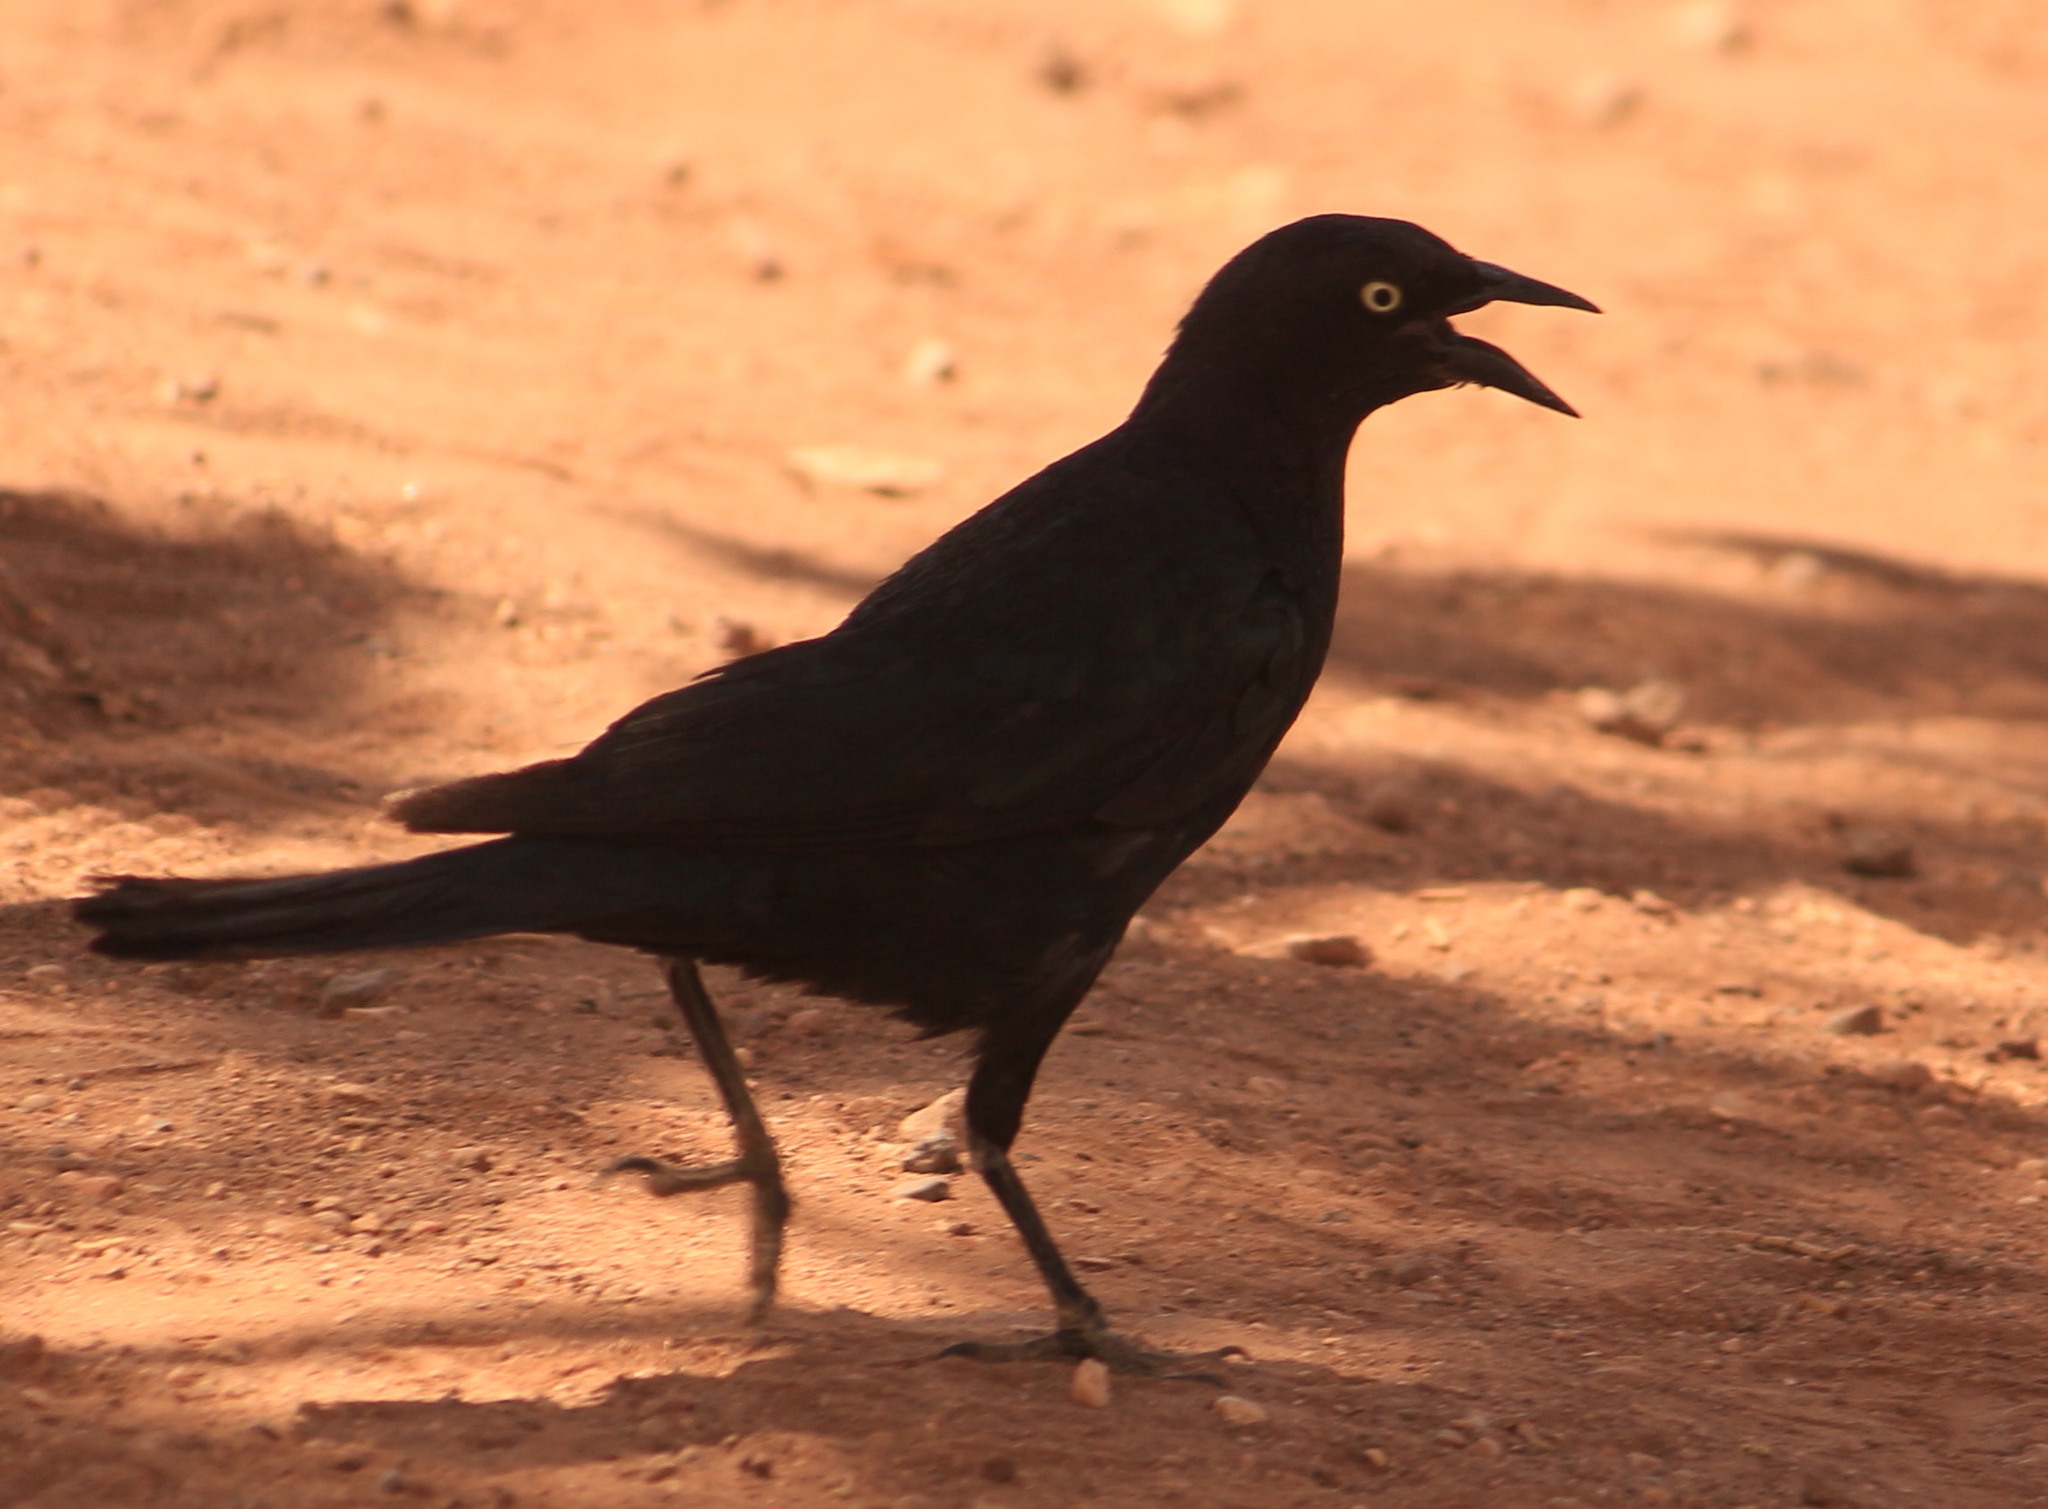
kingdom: Animalia
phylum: Chordata
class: Aves
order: Passeriformes
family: Icteridae
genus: Euphagus
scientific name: Euphagus cyanocephalus
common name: Brewer's blackbird
